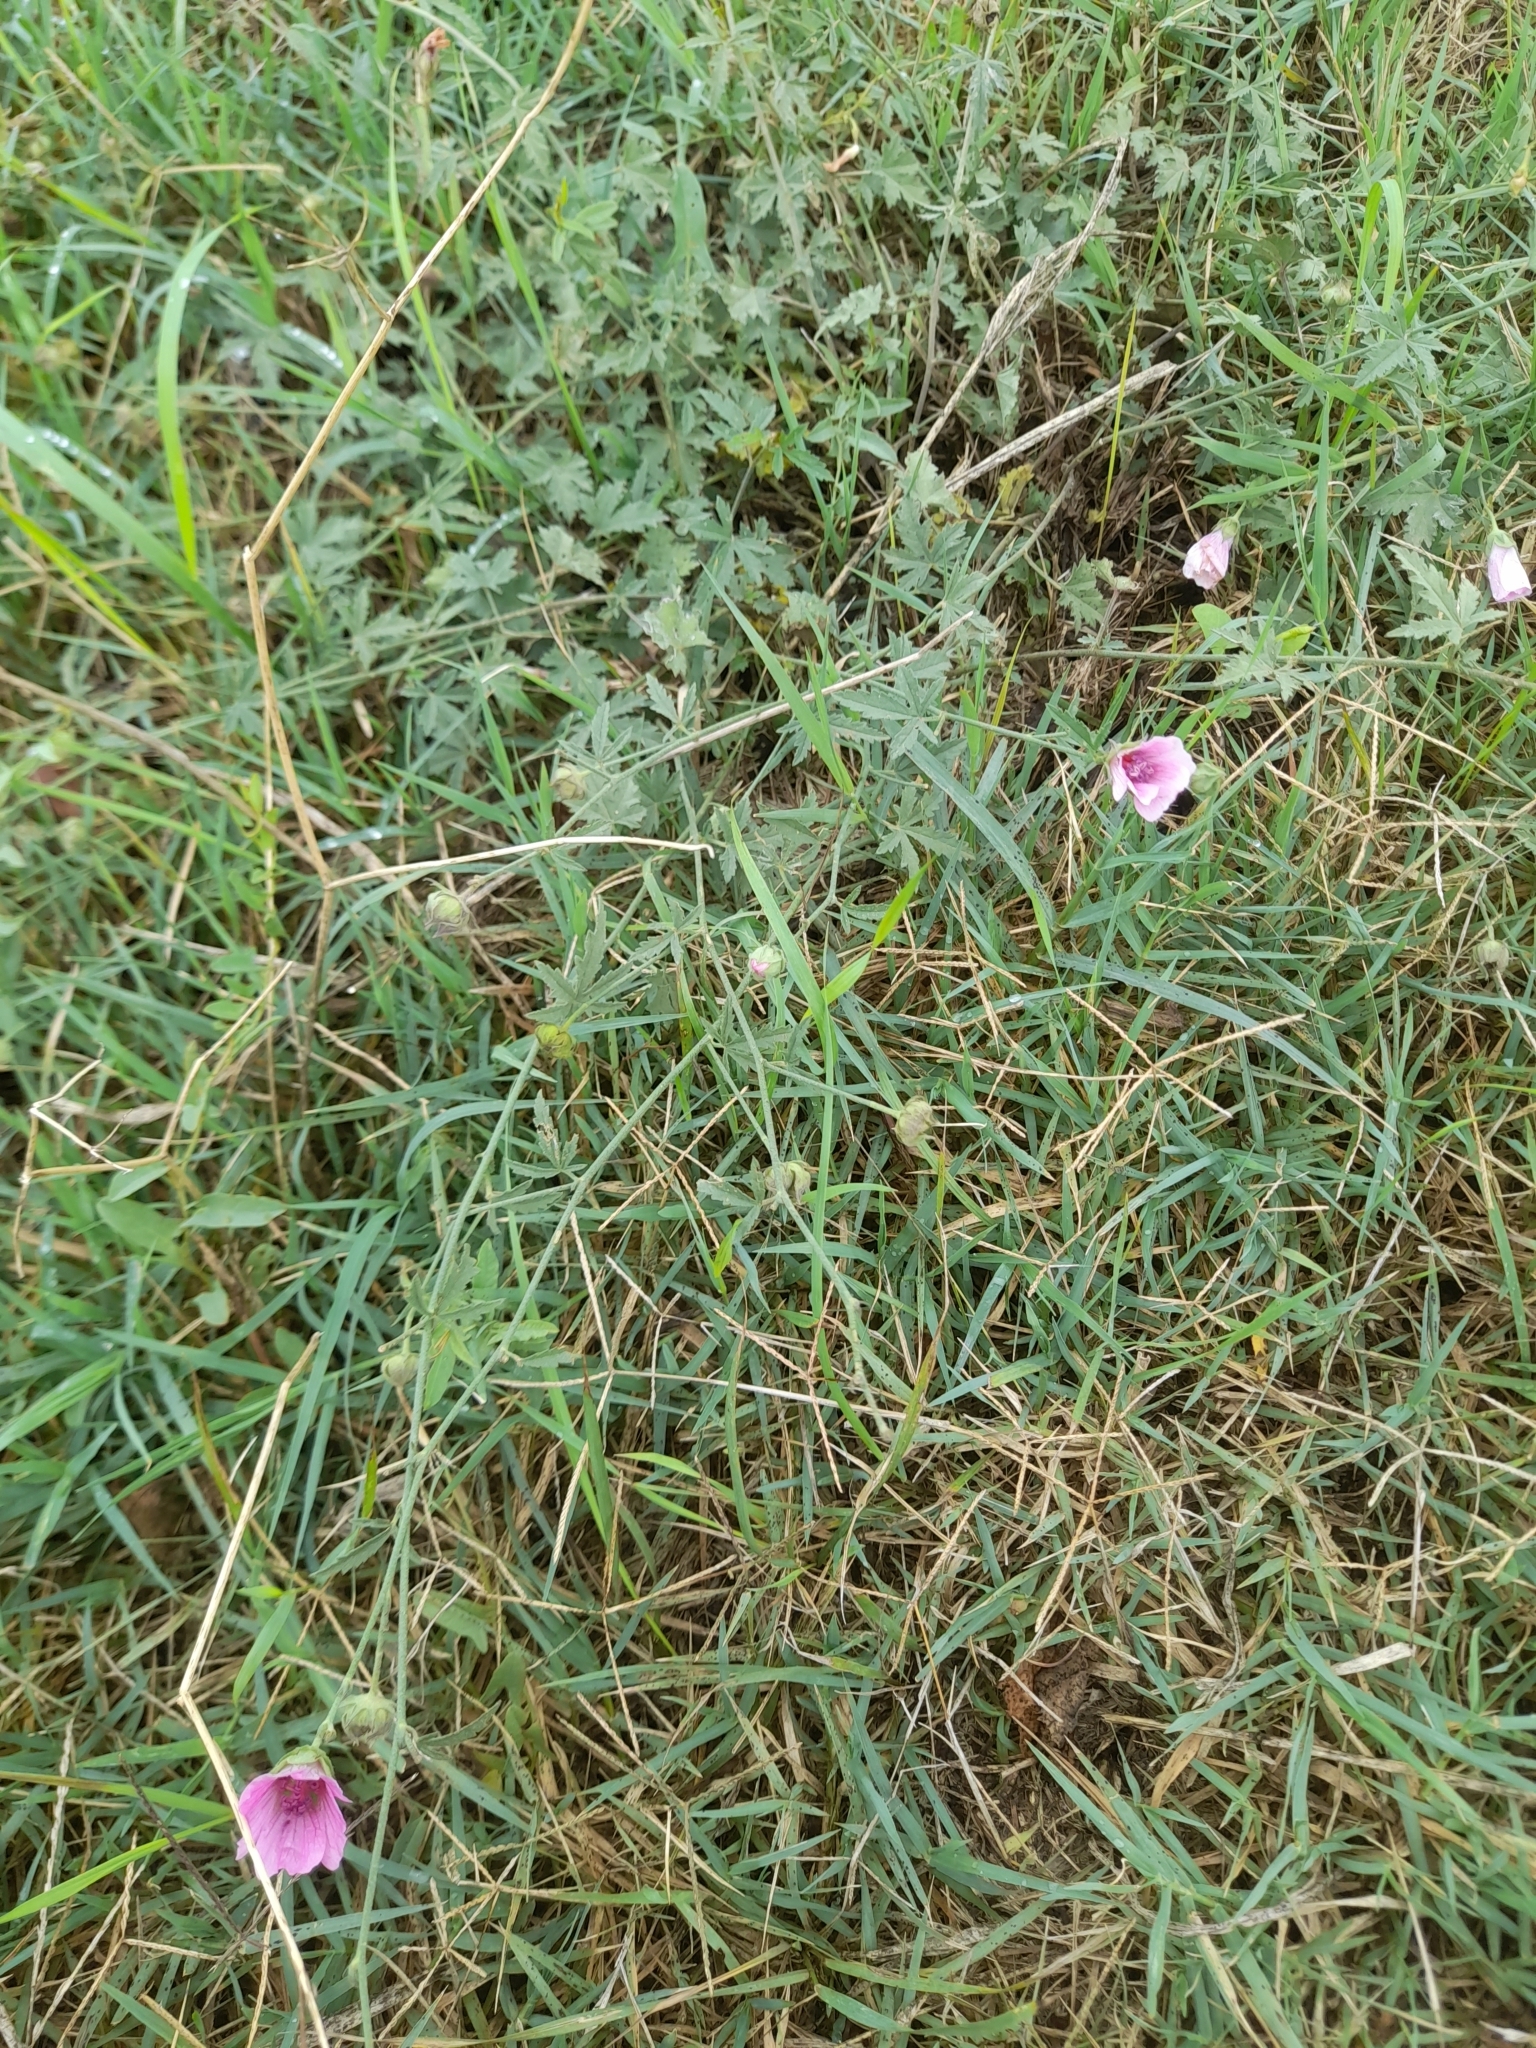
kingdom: Plantae
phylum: Tracheophyta
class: Magnoliopsida
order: Malvales
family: Malvaceae
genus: Althaea
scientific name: Althaea cannabina
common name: Palm-leaf marshmallow
